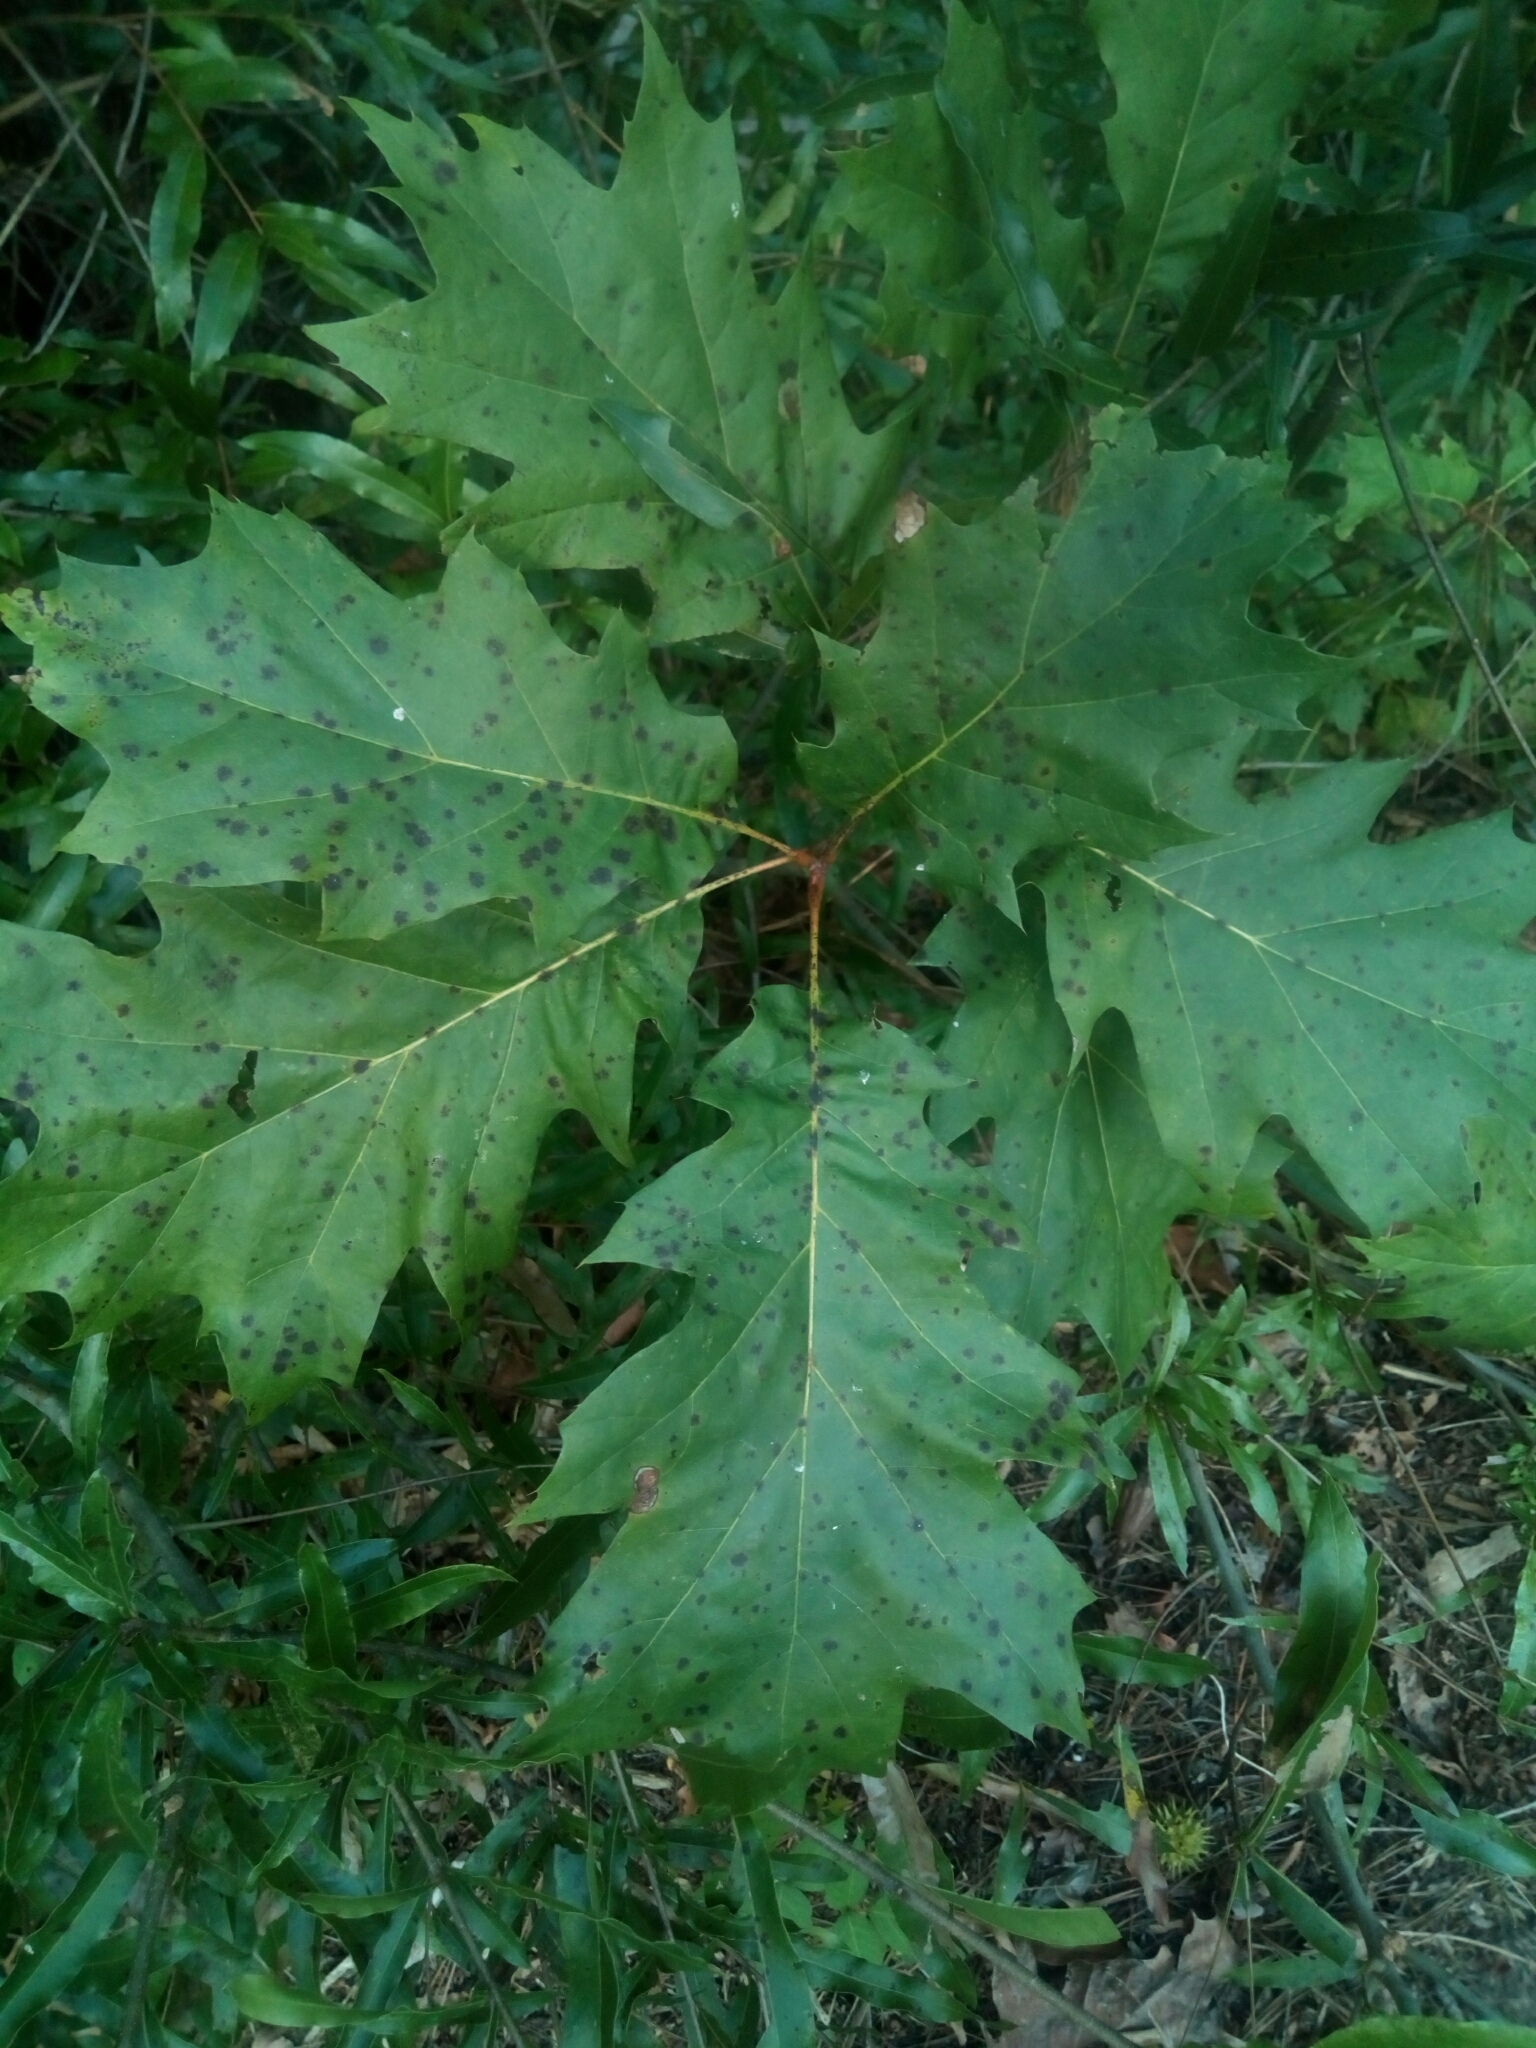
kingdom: Plantae
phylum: Tracheophyta
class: Magnoliopsida
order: Fagales
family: Fagaceae
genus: Quercus
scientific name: Quercus rubra
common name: Red oak
